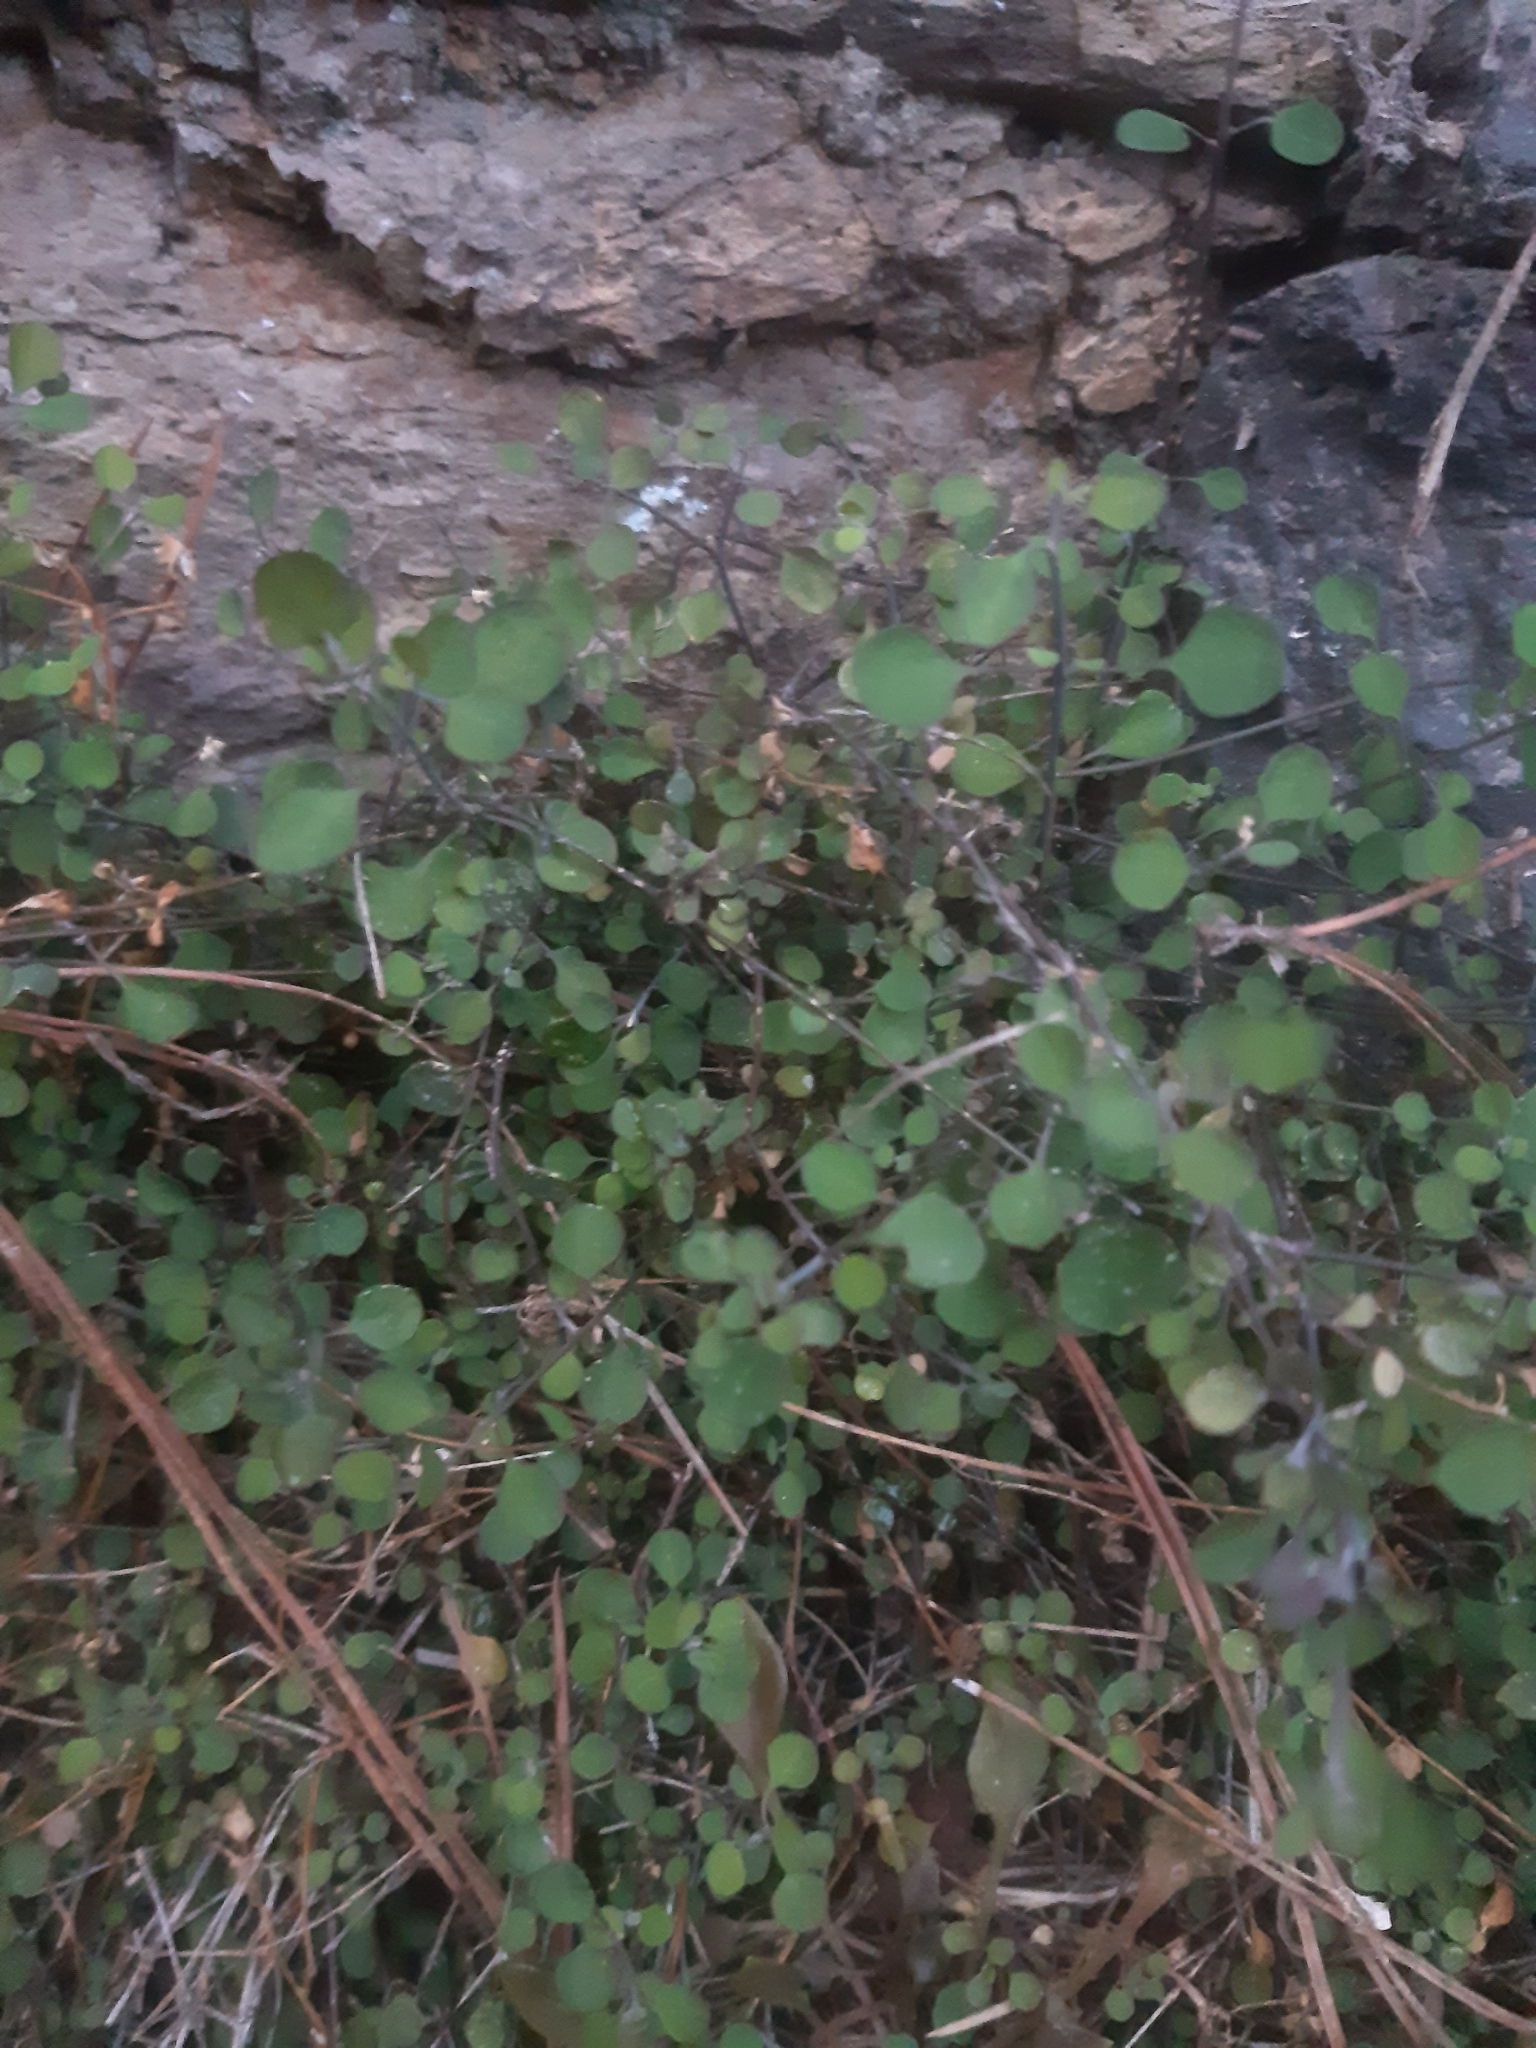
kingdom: Plantae
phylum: Tracheophyta
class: Magnoliopsida
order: Caryophyllales
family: Amaranthaceae
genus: Chenopodium
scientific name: Chenopodium allanii
